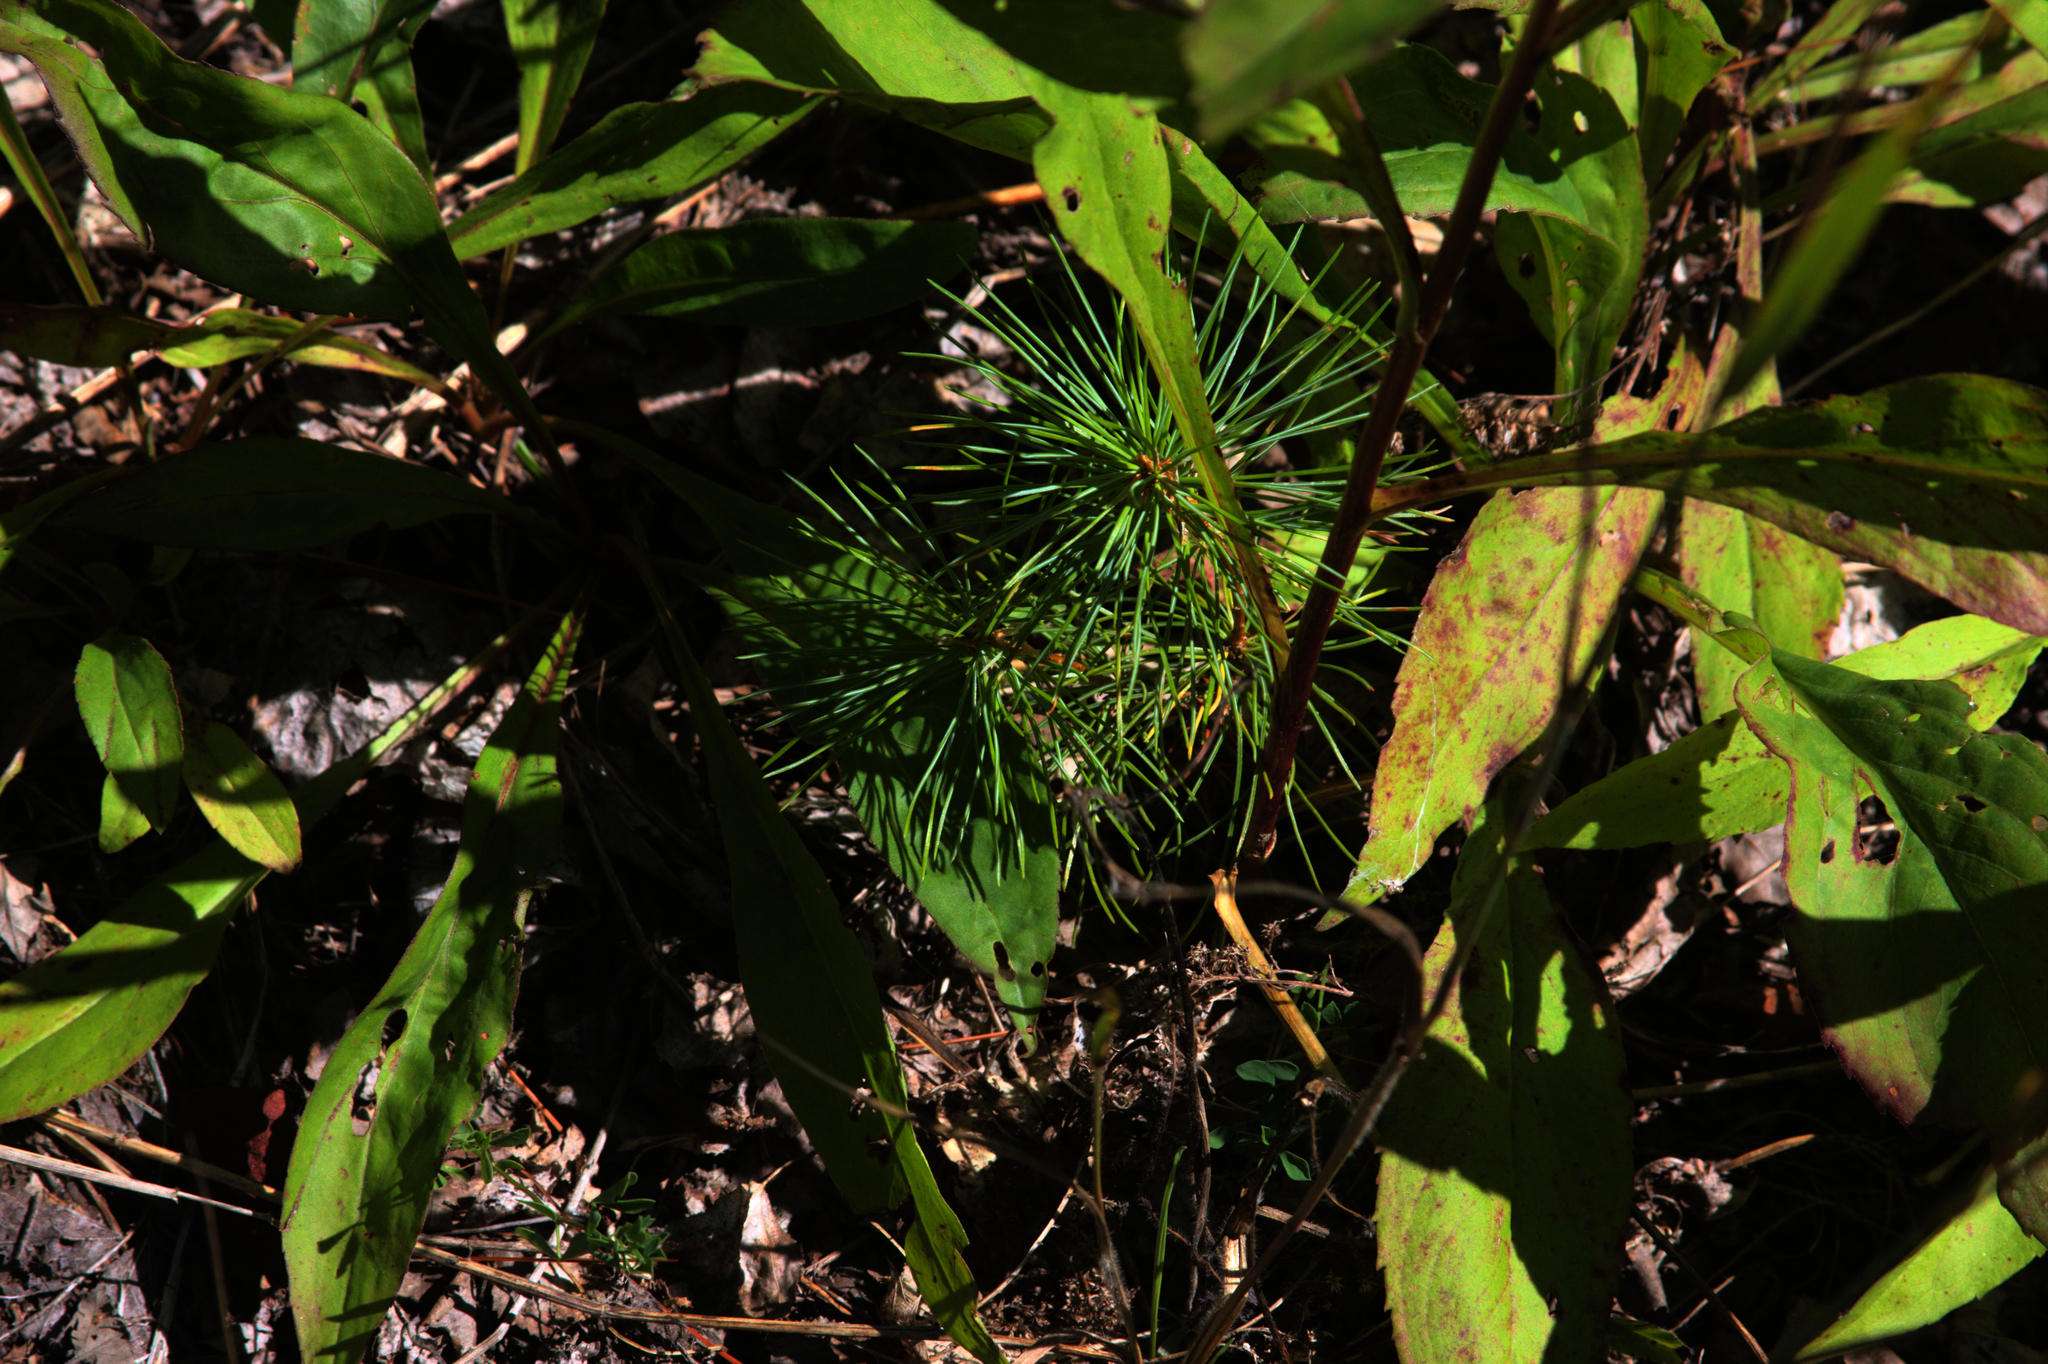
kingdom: Plantae
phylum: Tracheophyta
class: Pinopsida
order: Pinales
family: Pinaceae
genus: Pinus
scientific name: Pinus strobus
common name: Weymouth pine
